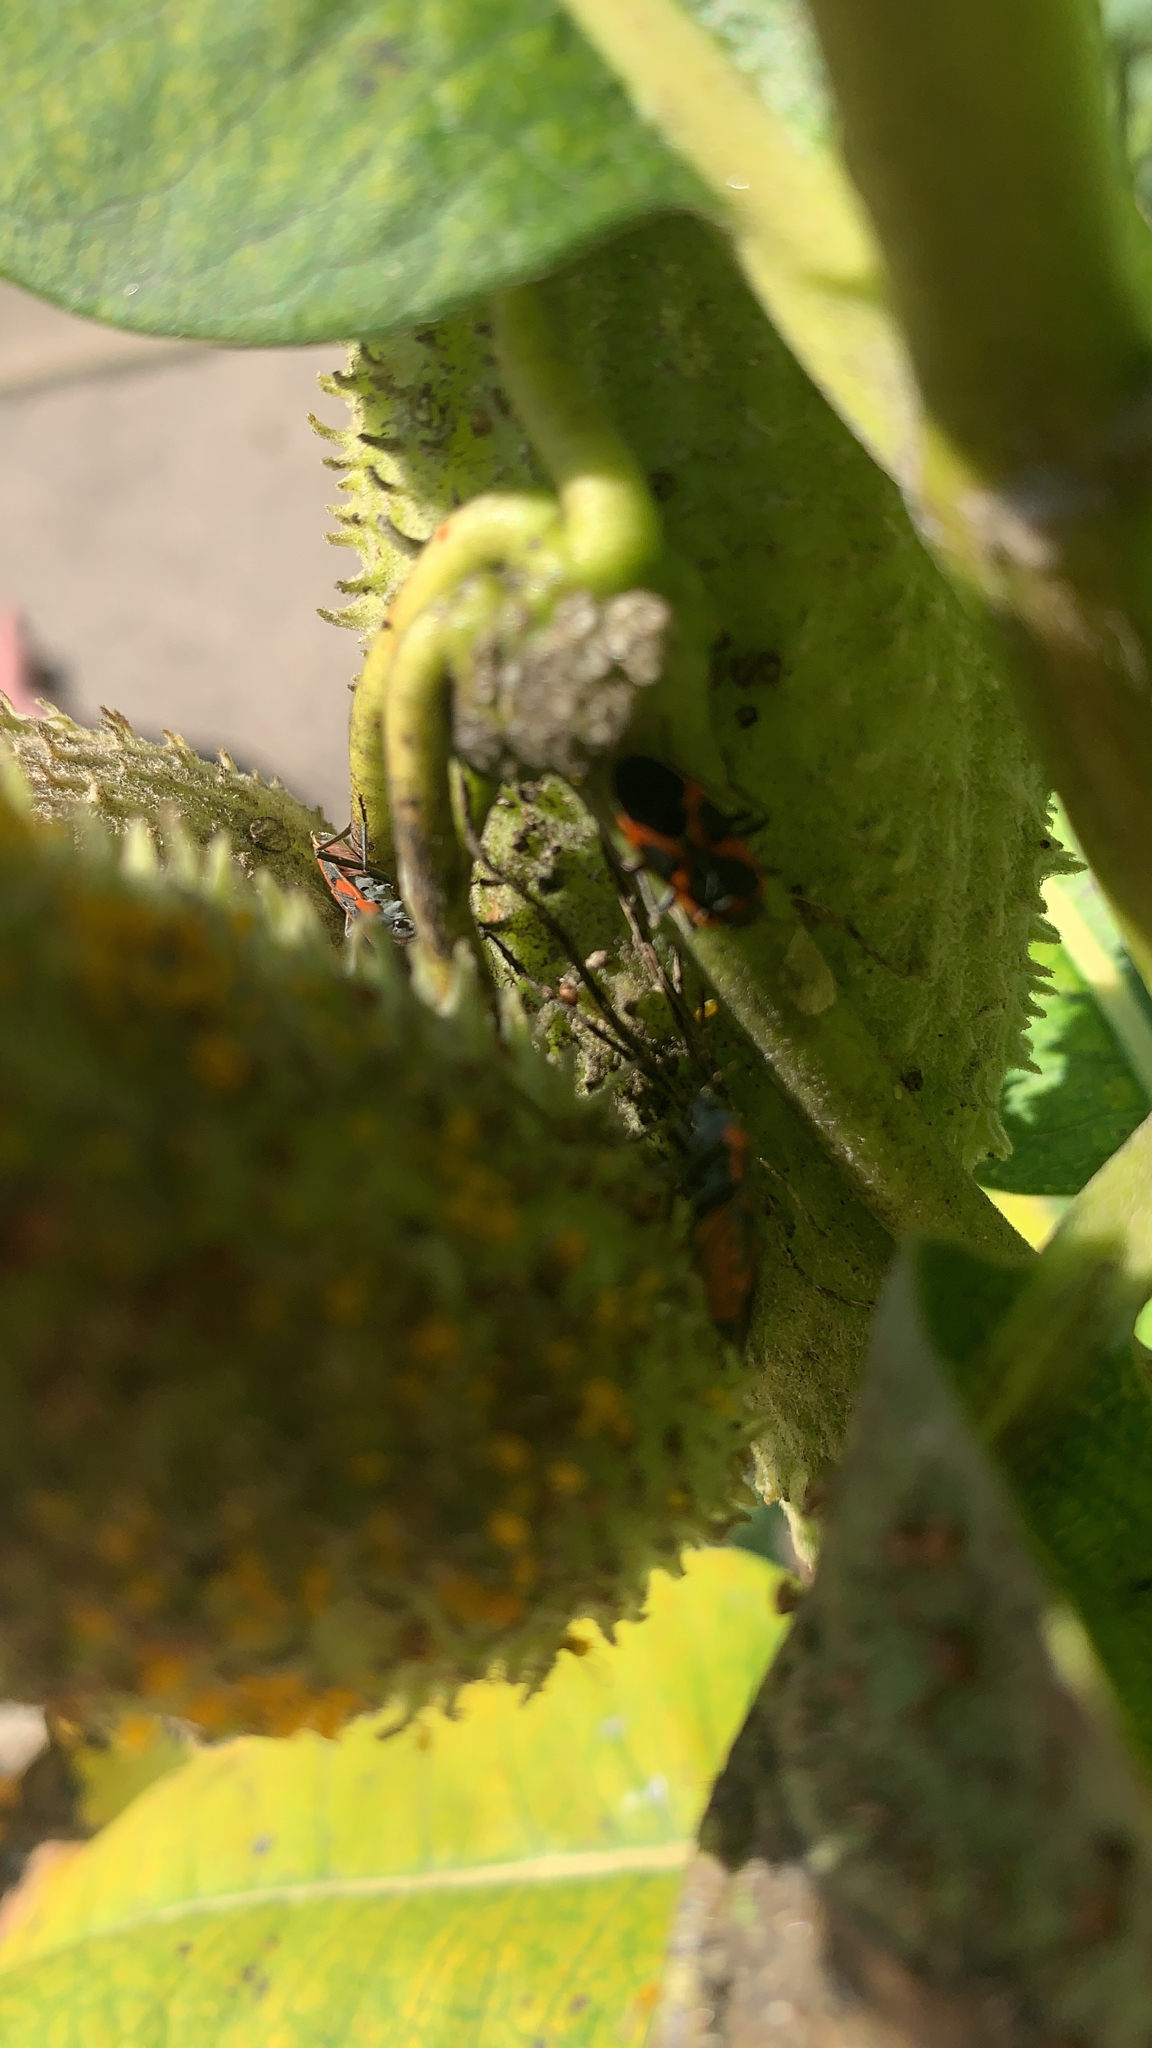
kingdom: Animalia
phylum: Arthropoda
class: Insecta
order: Hemiptera
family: Lygaeidae
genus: Lygaeus
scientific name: Lygaeus kalmii
